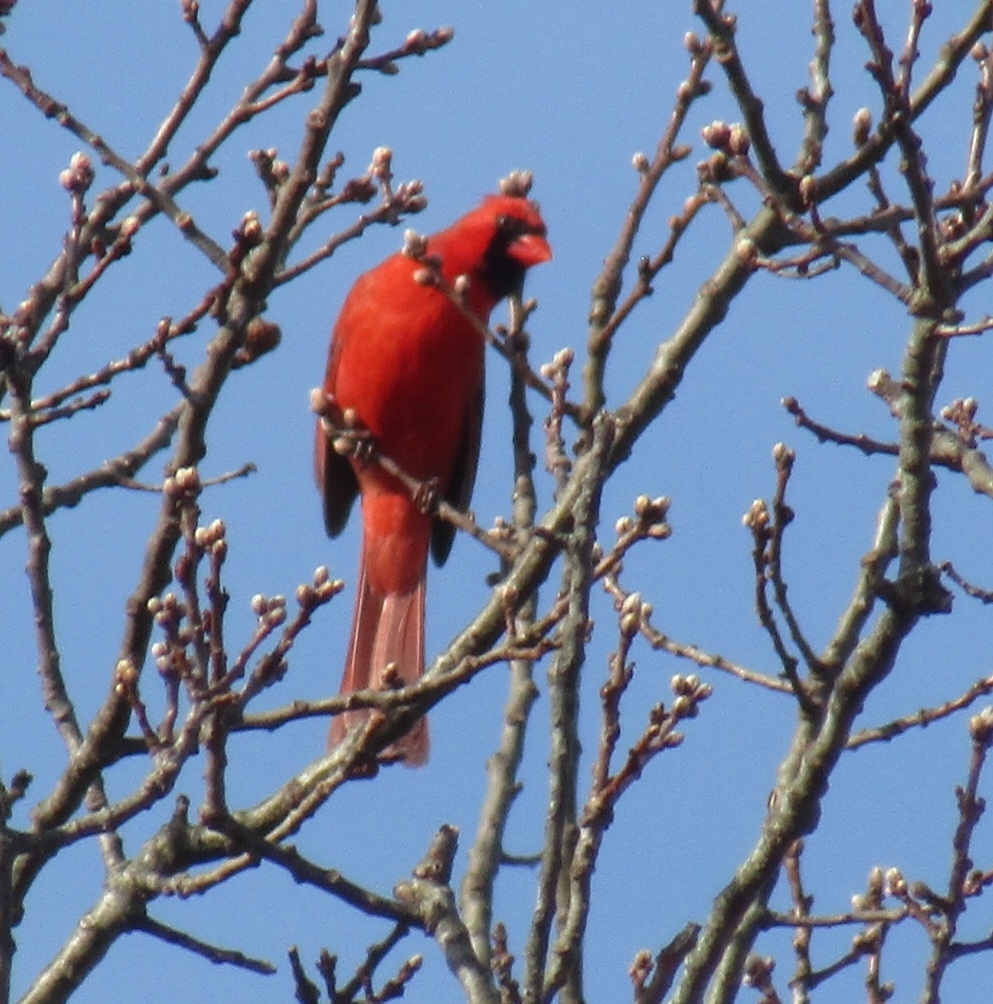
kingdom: Animalia
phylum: Chordata
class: Aves
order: Passeriformes
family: Cardinalidae
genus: Cardinalis
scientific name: Cardinalis cardinalis
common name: Northern cardinal
